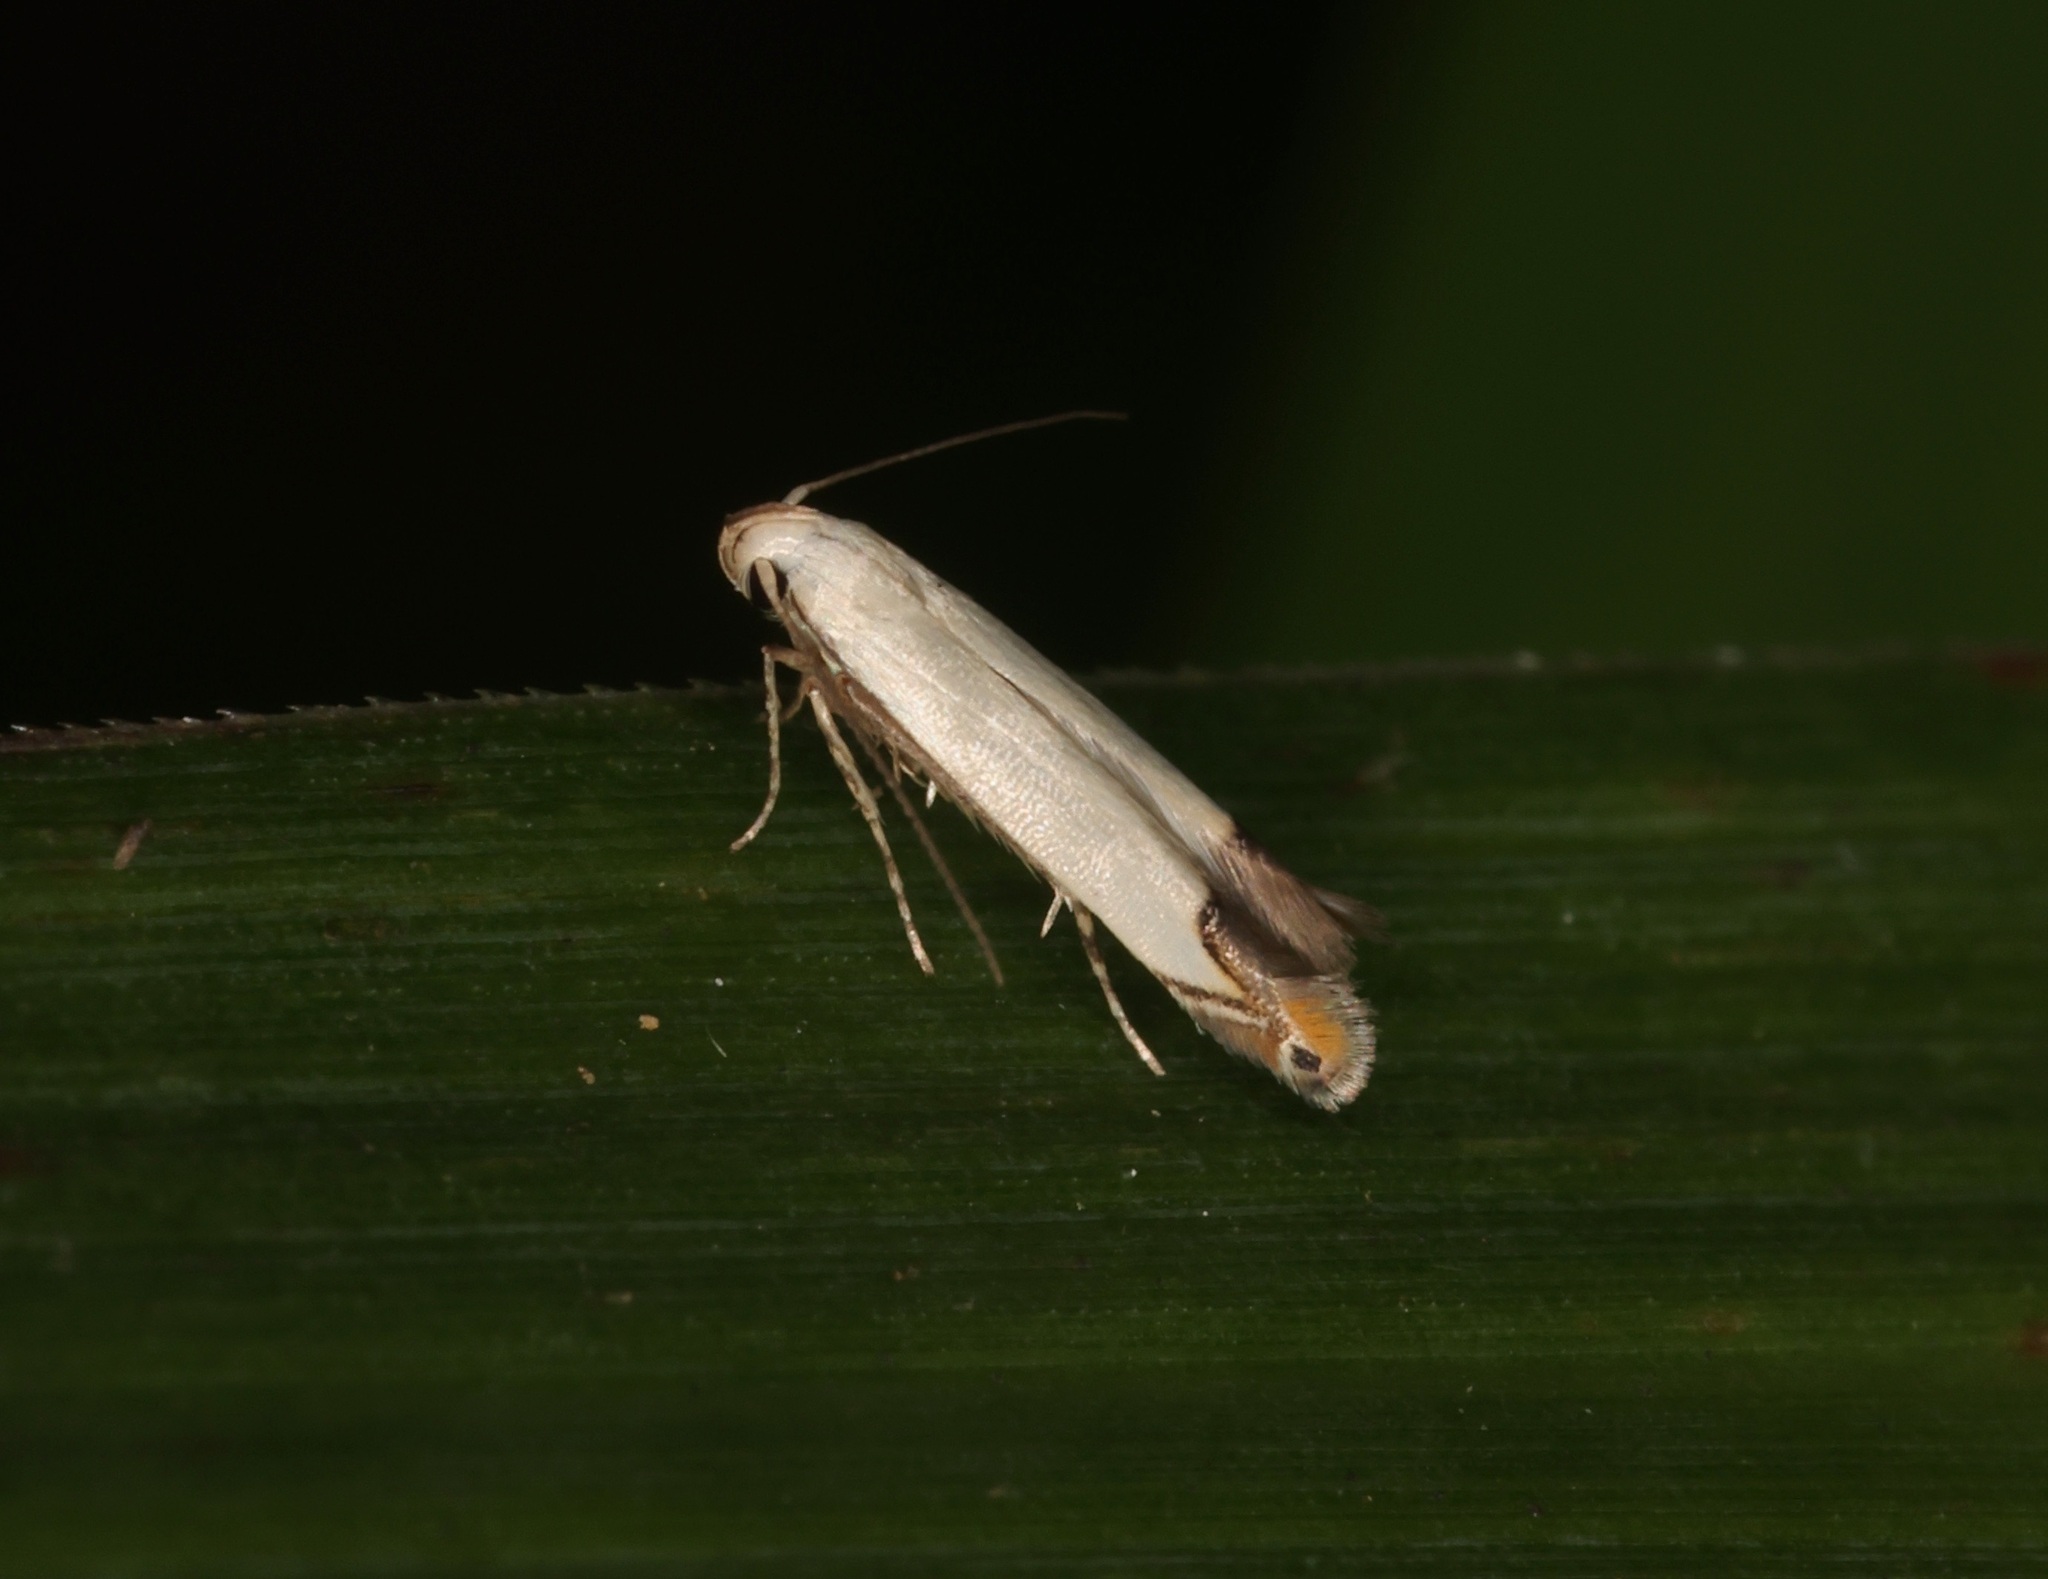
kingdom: Animalia
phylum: Arthropoda
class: Insecta
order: Lepidoptera
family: Gelechiidae
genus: Thiotricha
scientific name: Thiotricha
